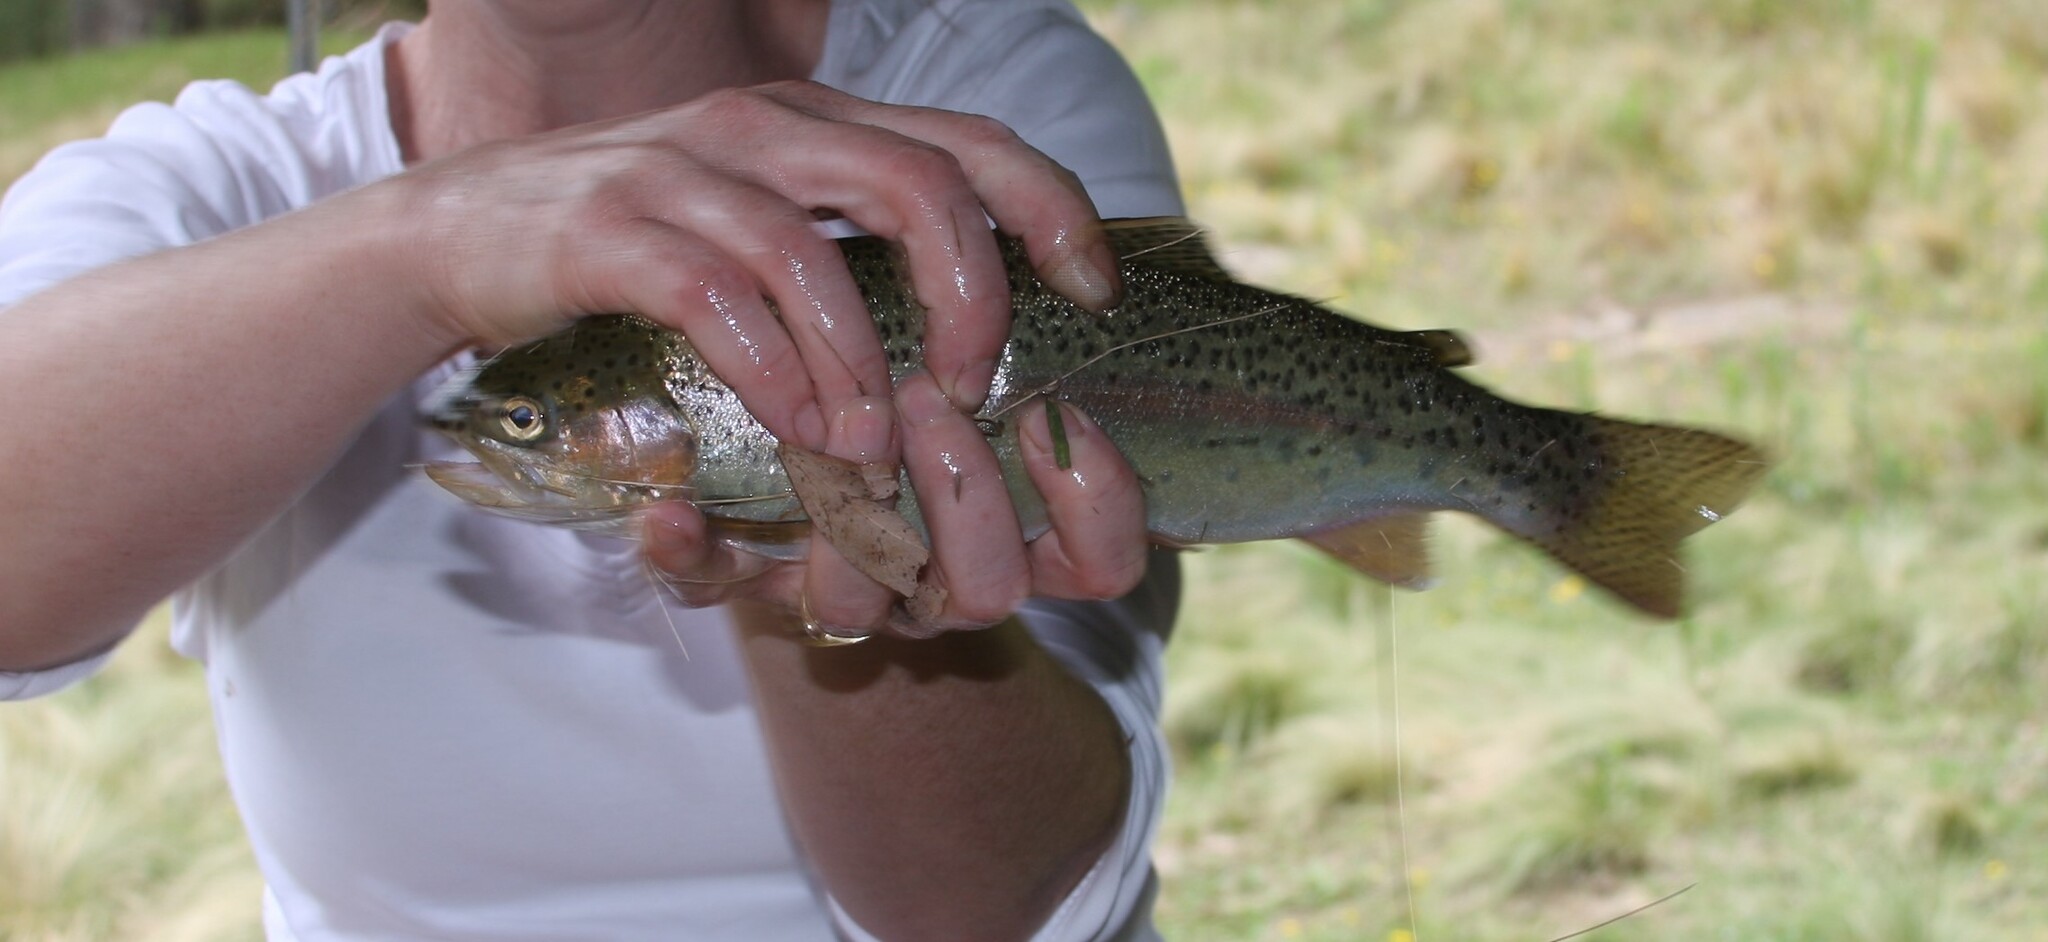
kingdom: Animalia
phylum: Chordata
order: Salmoniformes
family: Salmonidae
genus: Oncorhynchus
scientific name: Oncorhynchus mykiss
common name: Rainbow trout
